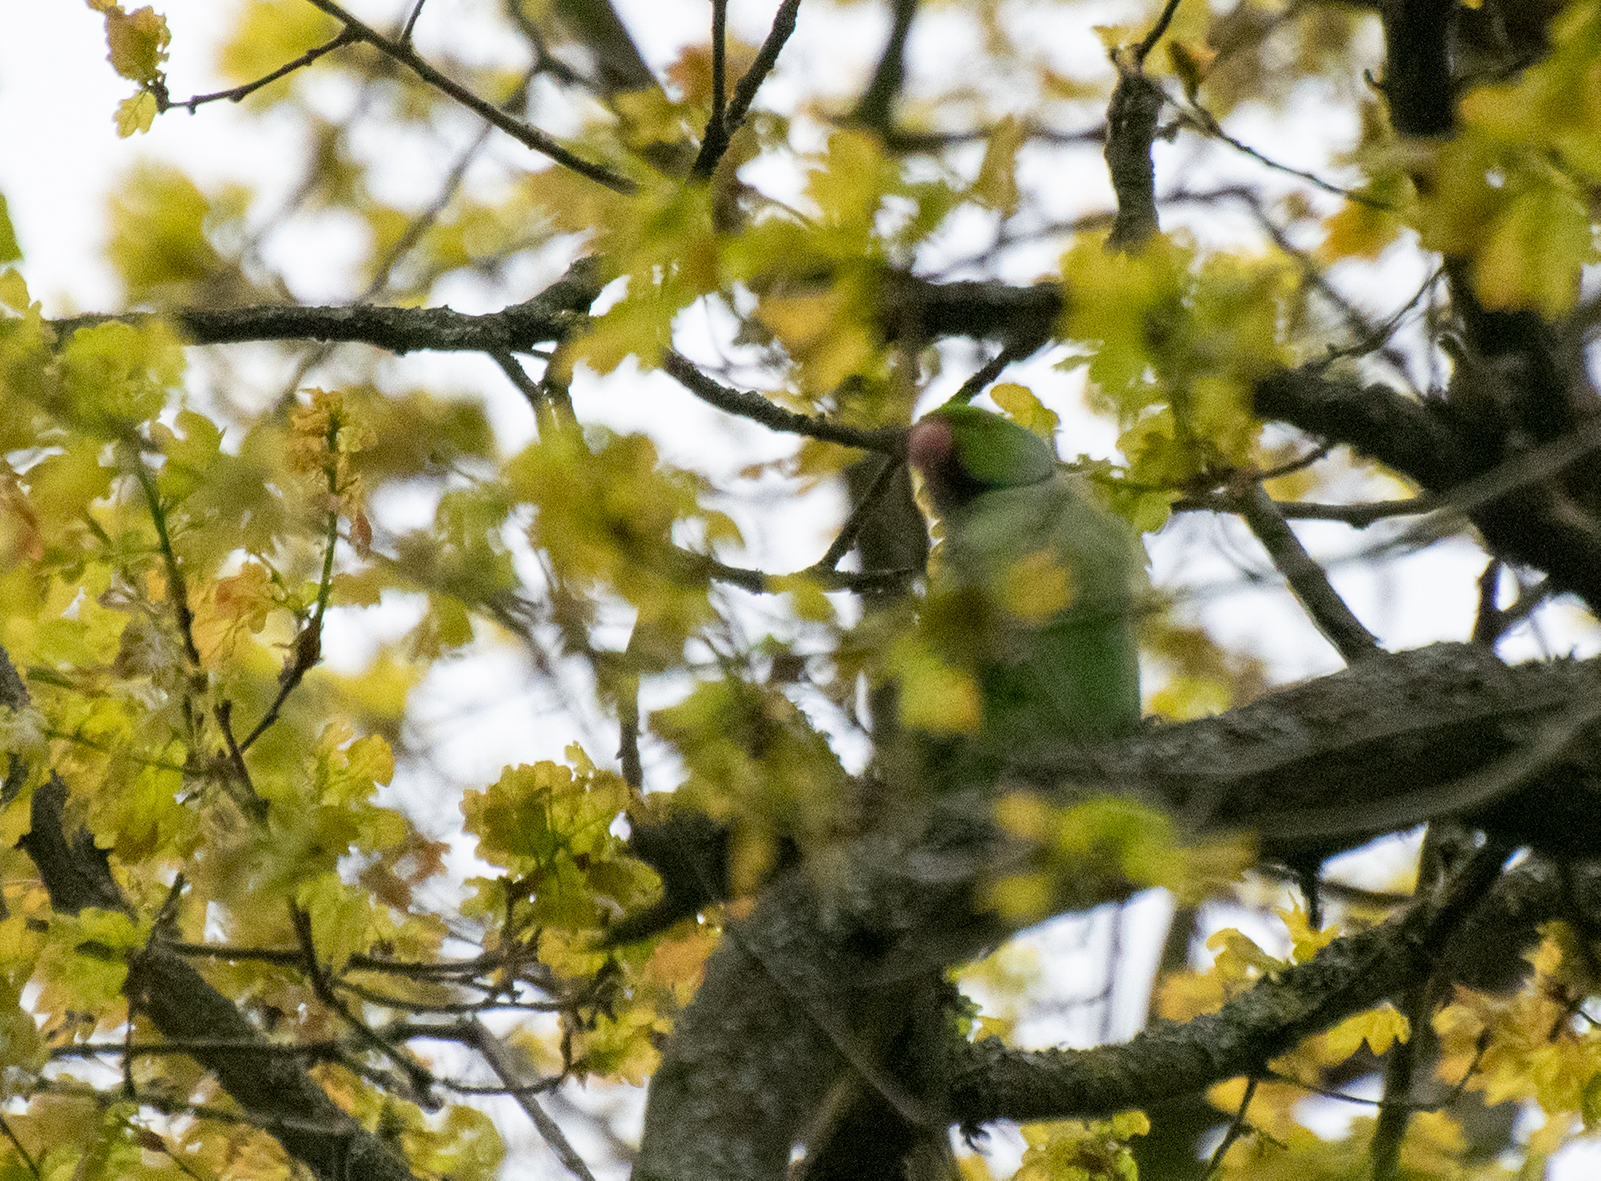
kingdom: Animalia
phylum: Chordata
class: Aves
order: Psittaciformes
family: Psittacidae
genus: Psittacula
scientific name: Psittacula krameri
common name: Rose-ringed parakeet
